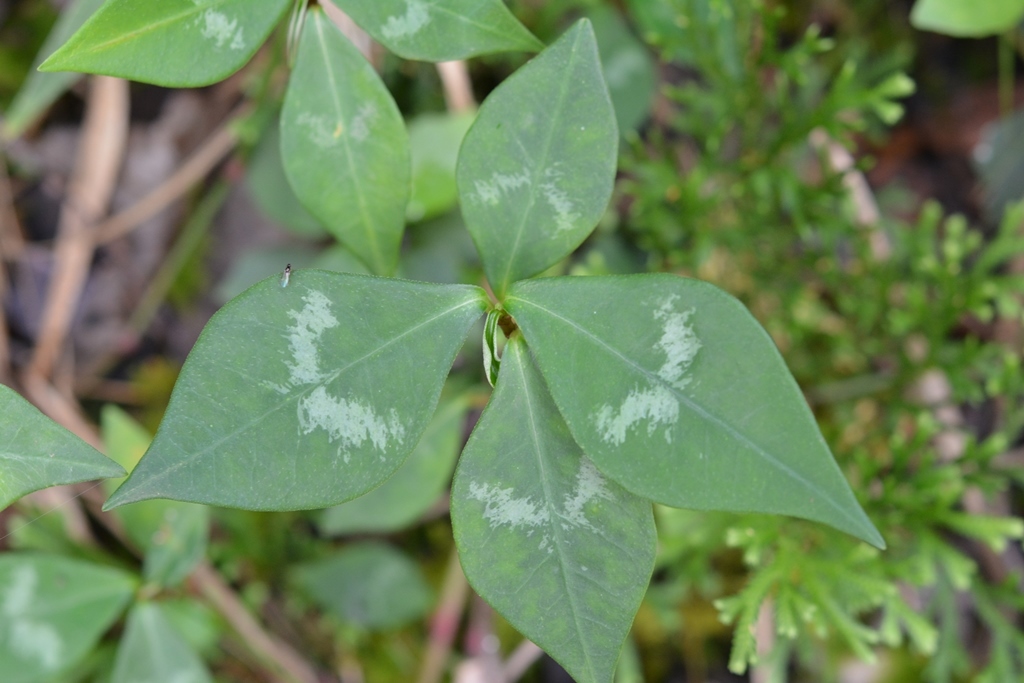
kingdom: Plantae
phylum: Tracheophyta
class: Magnoliopsida
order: Malpighiales
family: Euphorbiaceae
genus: Euphorbia
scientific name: Euphorbia lancifolia
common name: Ixbut
